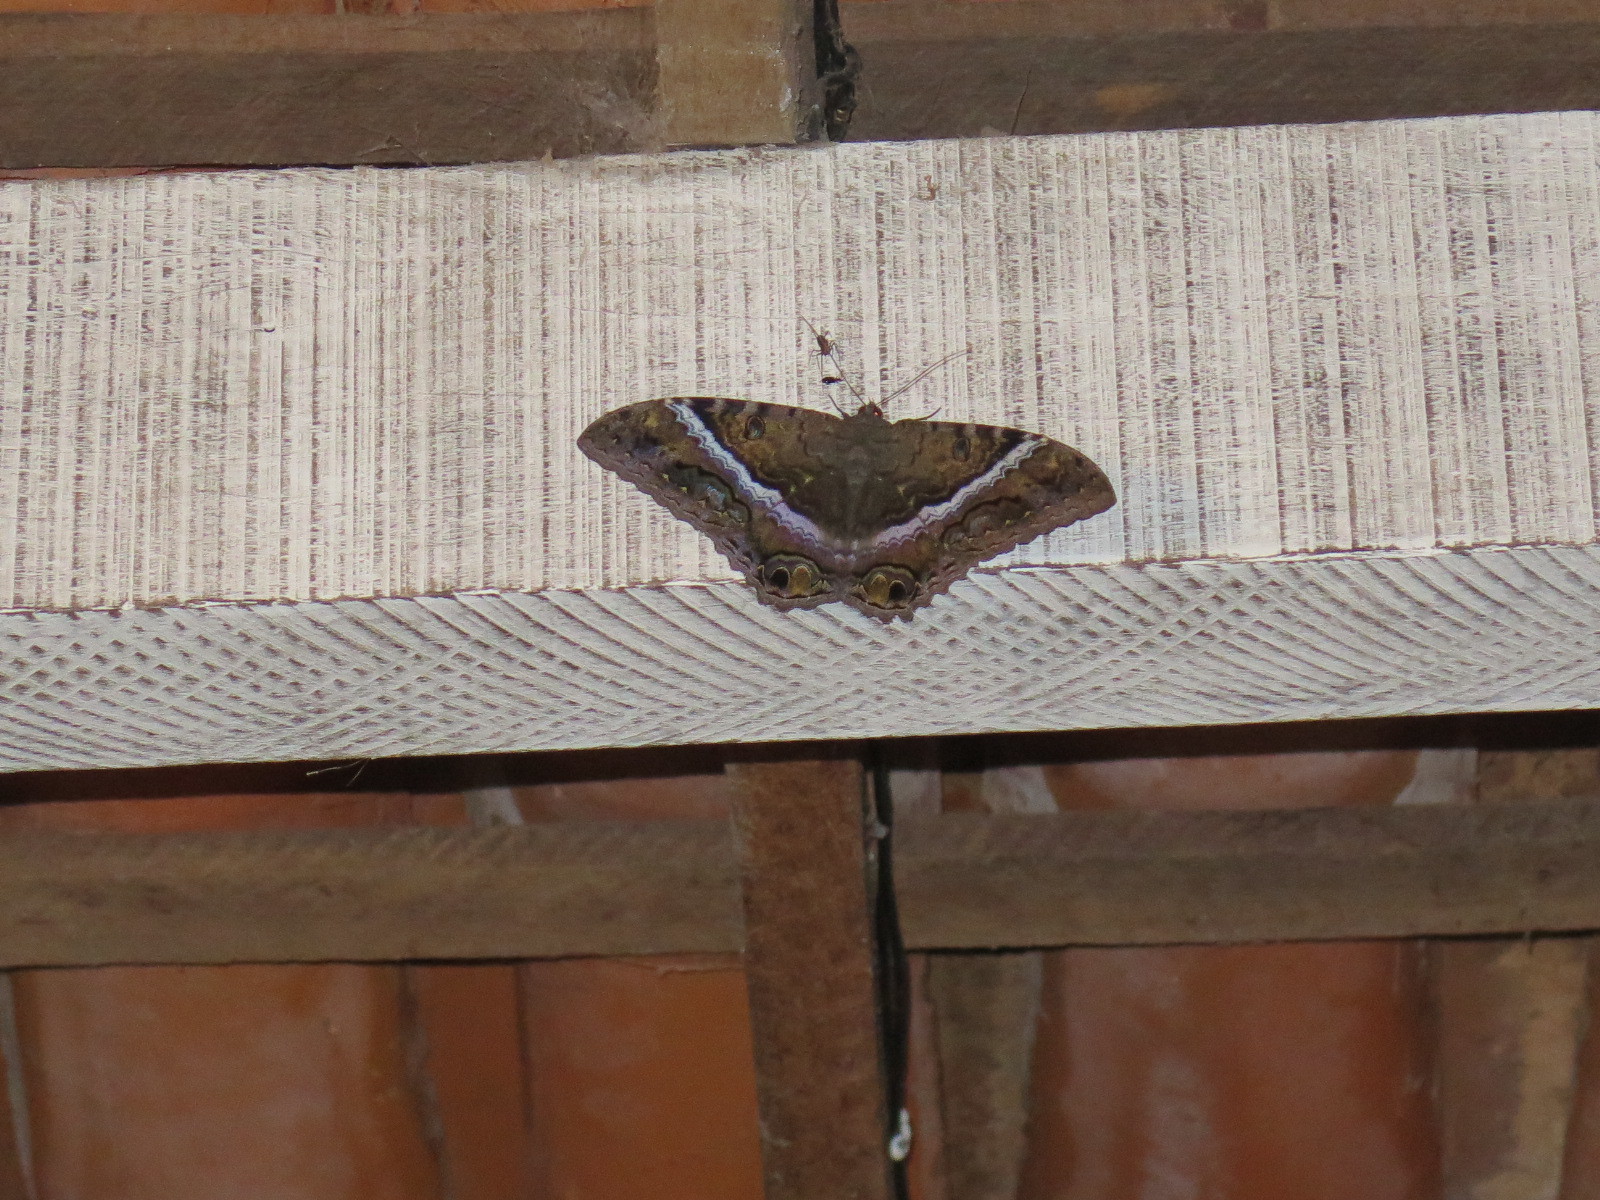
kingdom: Animalia
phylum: Arthropoda
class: Insecta
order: Lepidoptera
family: Erebidae
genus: Ascalapha
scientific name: Ascalapha odorata
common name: Black witch
